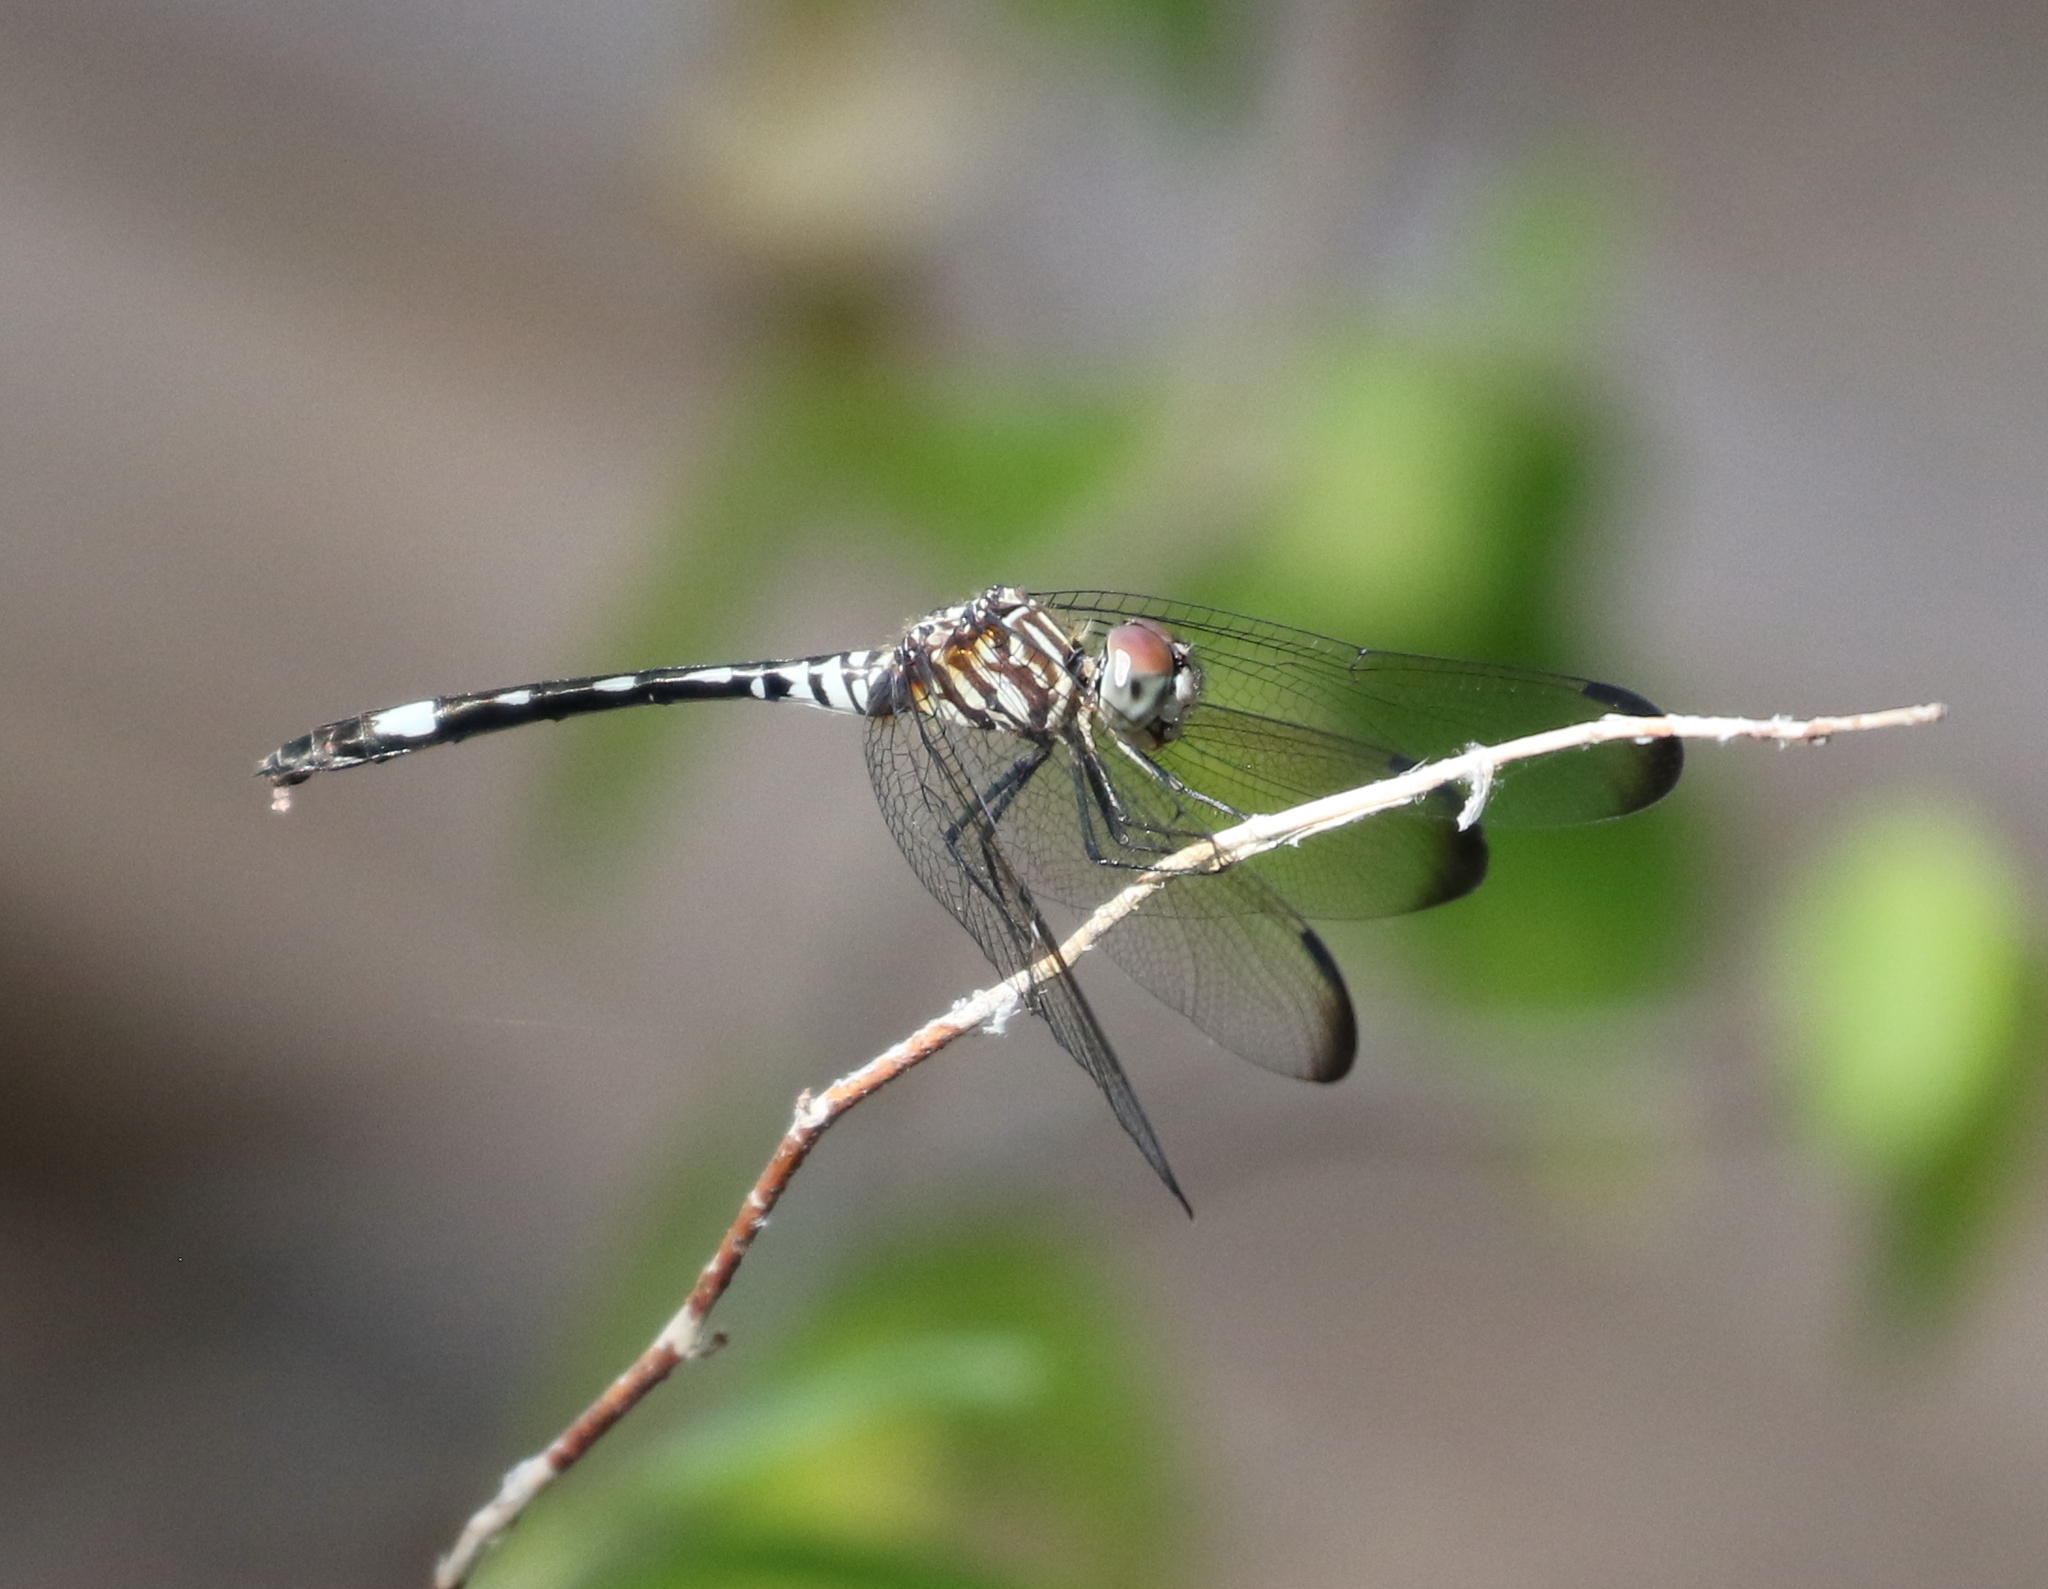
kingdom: Animalia
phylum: Arthropoda
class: Insecta
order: Odonata
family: Libellulidae
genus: Dythemis
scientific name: Dythemis velox
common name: Swift setwing
